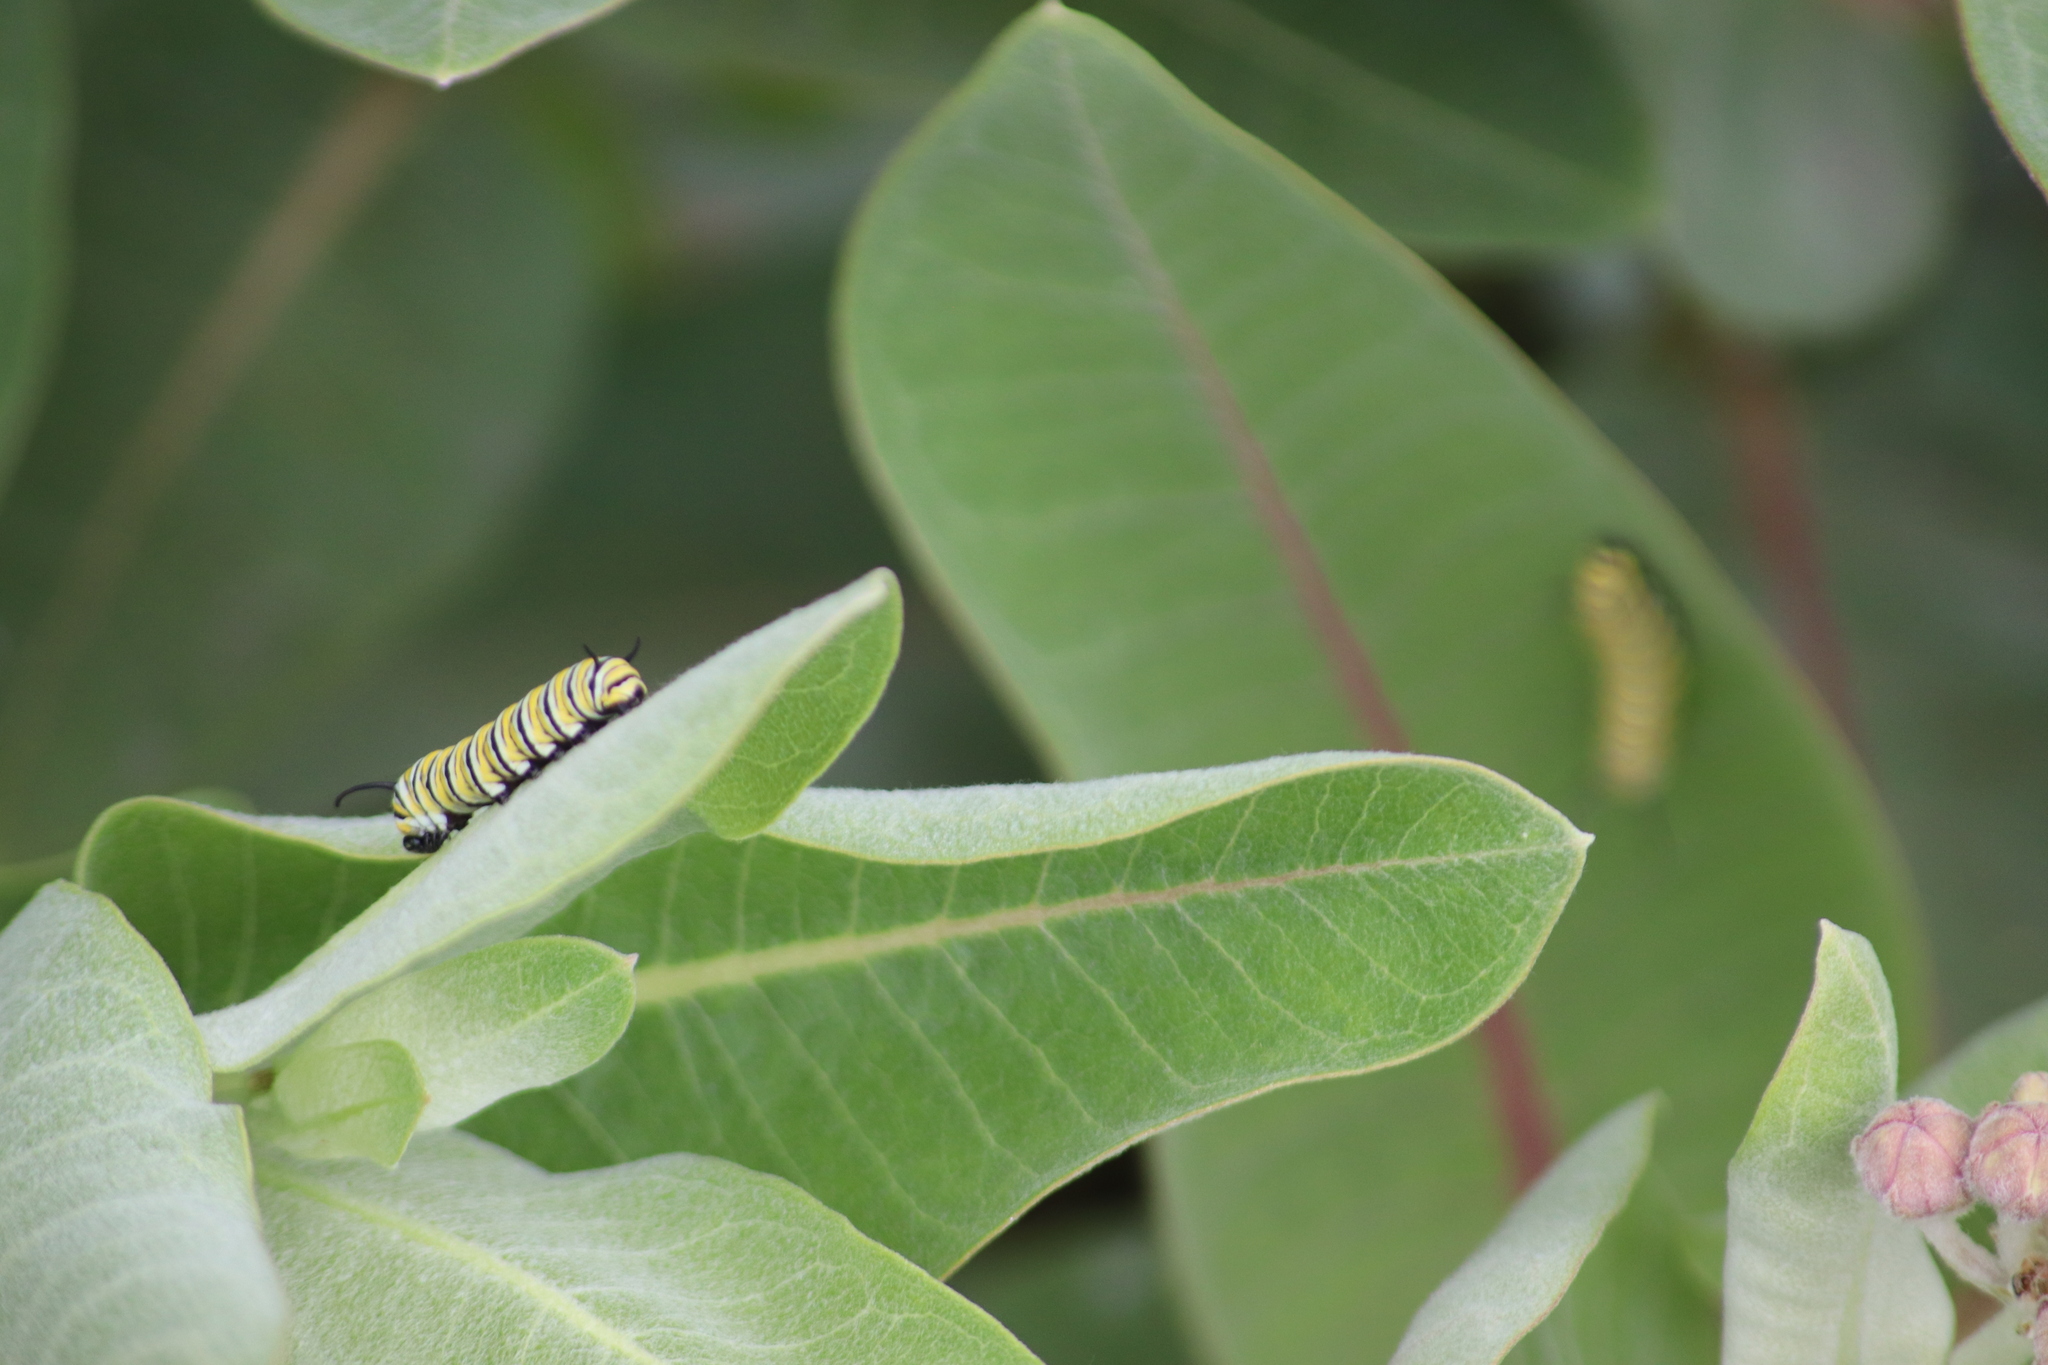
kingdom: Animalia
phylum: Arthropoda
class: Insecta
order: Lepidoptera
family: Nymphalidae
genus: Danaus
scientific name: Danaus plexippus
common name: Monarch
